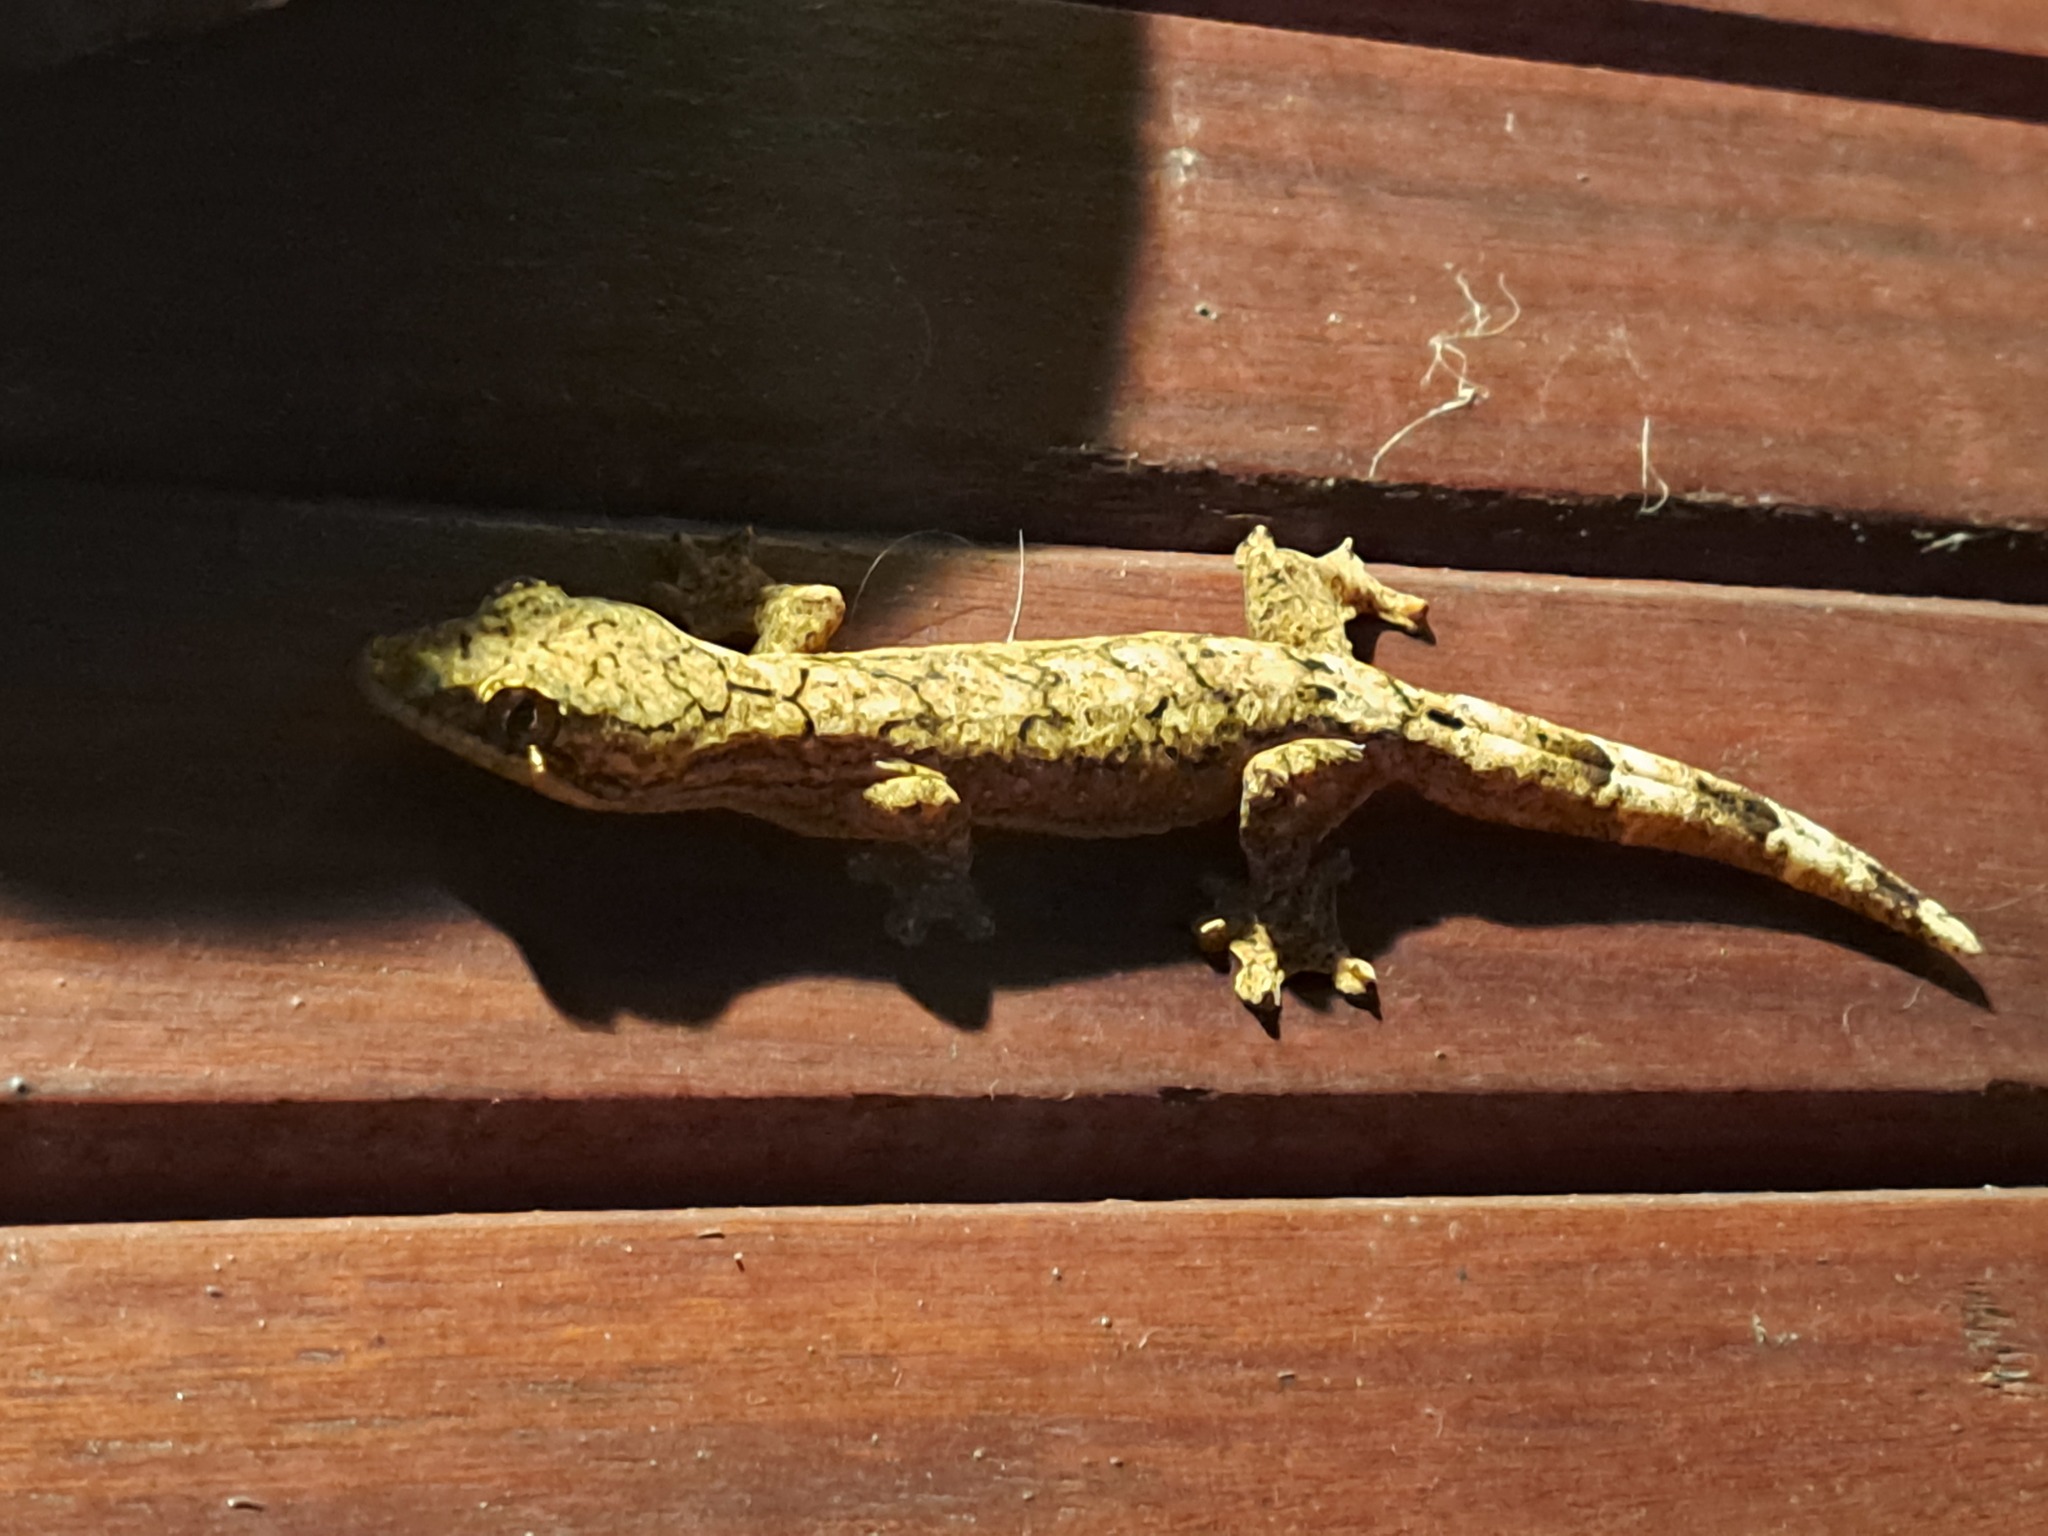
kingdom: Animalia
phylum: Chordata
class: Squamata
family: Phyllodactylidae
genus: Thecadactylus
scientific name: Thecadactylus solimoensis
